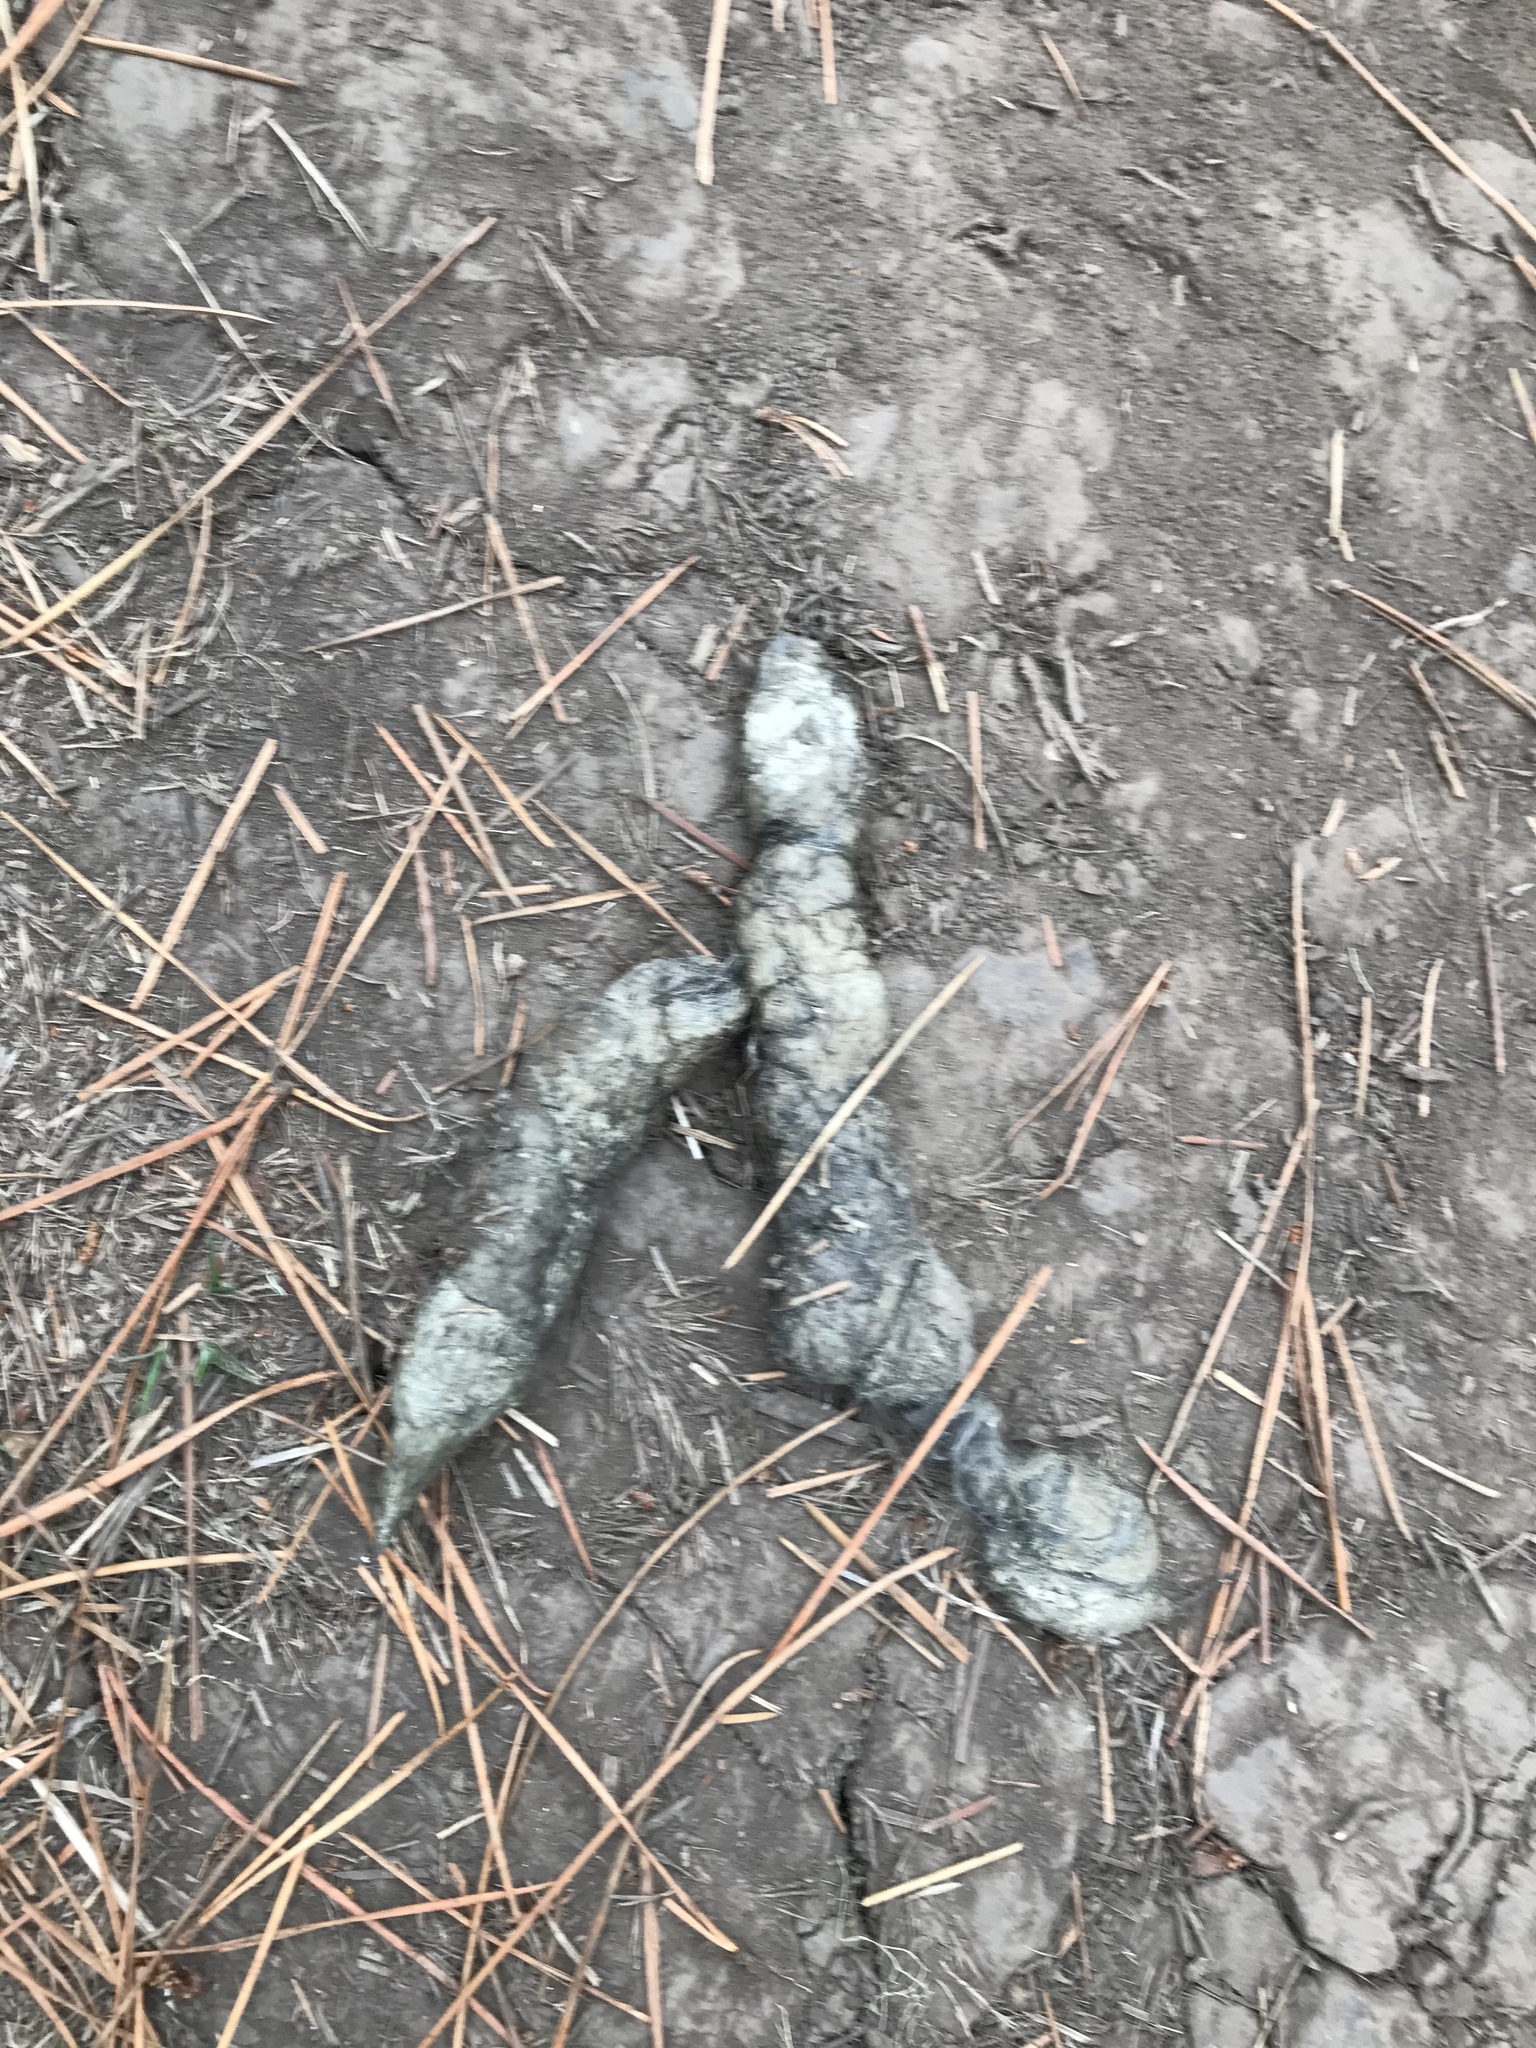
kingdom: Animalia
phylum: Chordata
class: Mammalia
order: Carnivora
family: Canidae
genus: Canis
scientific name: Canis latrans
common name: Coyote
